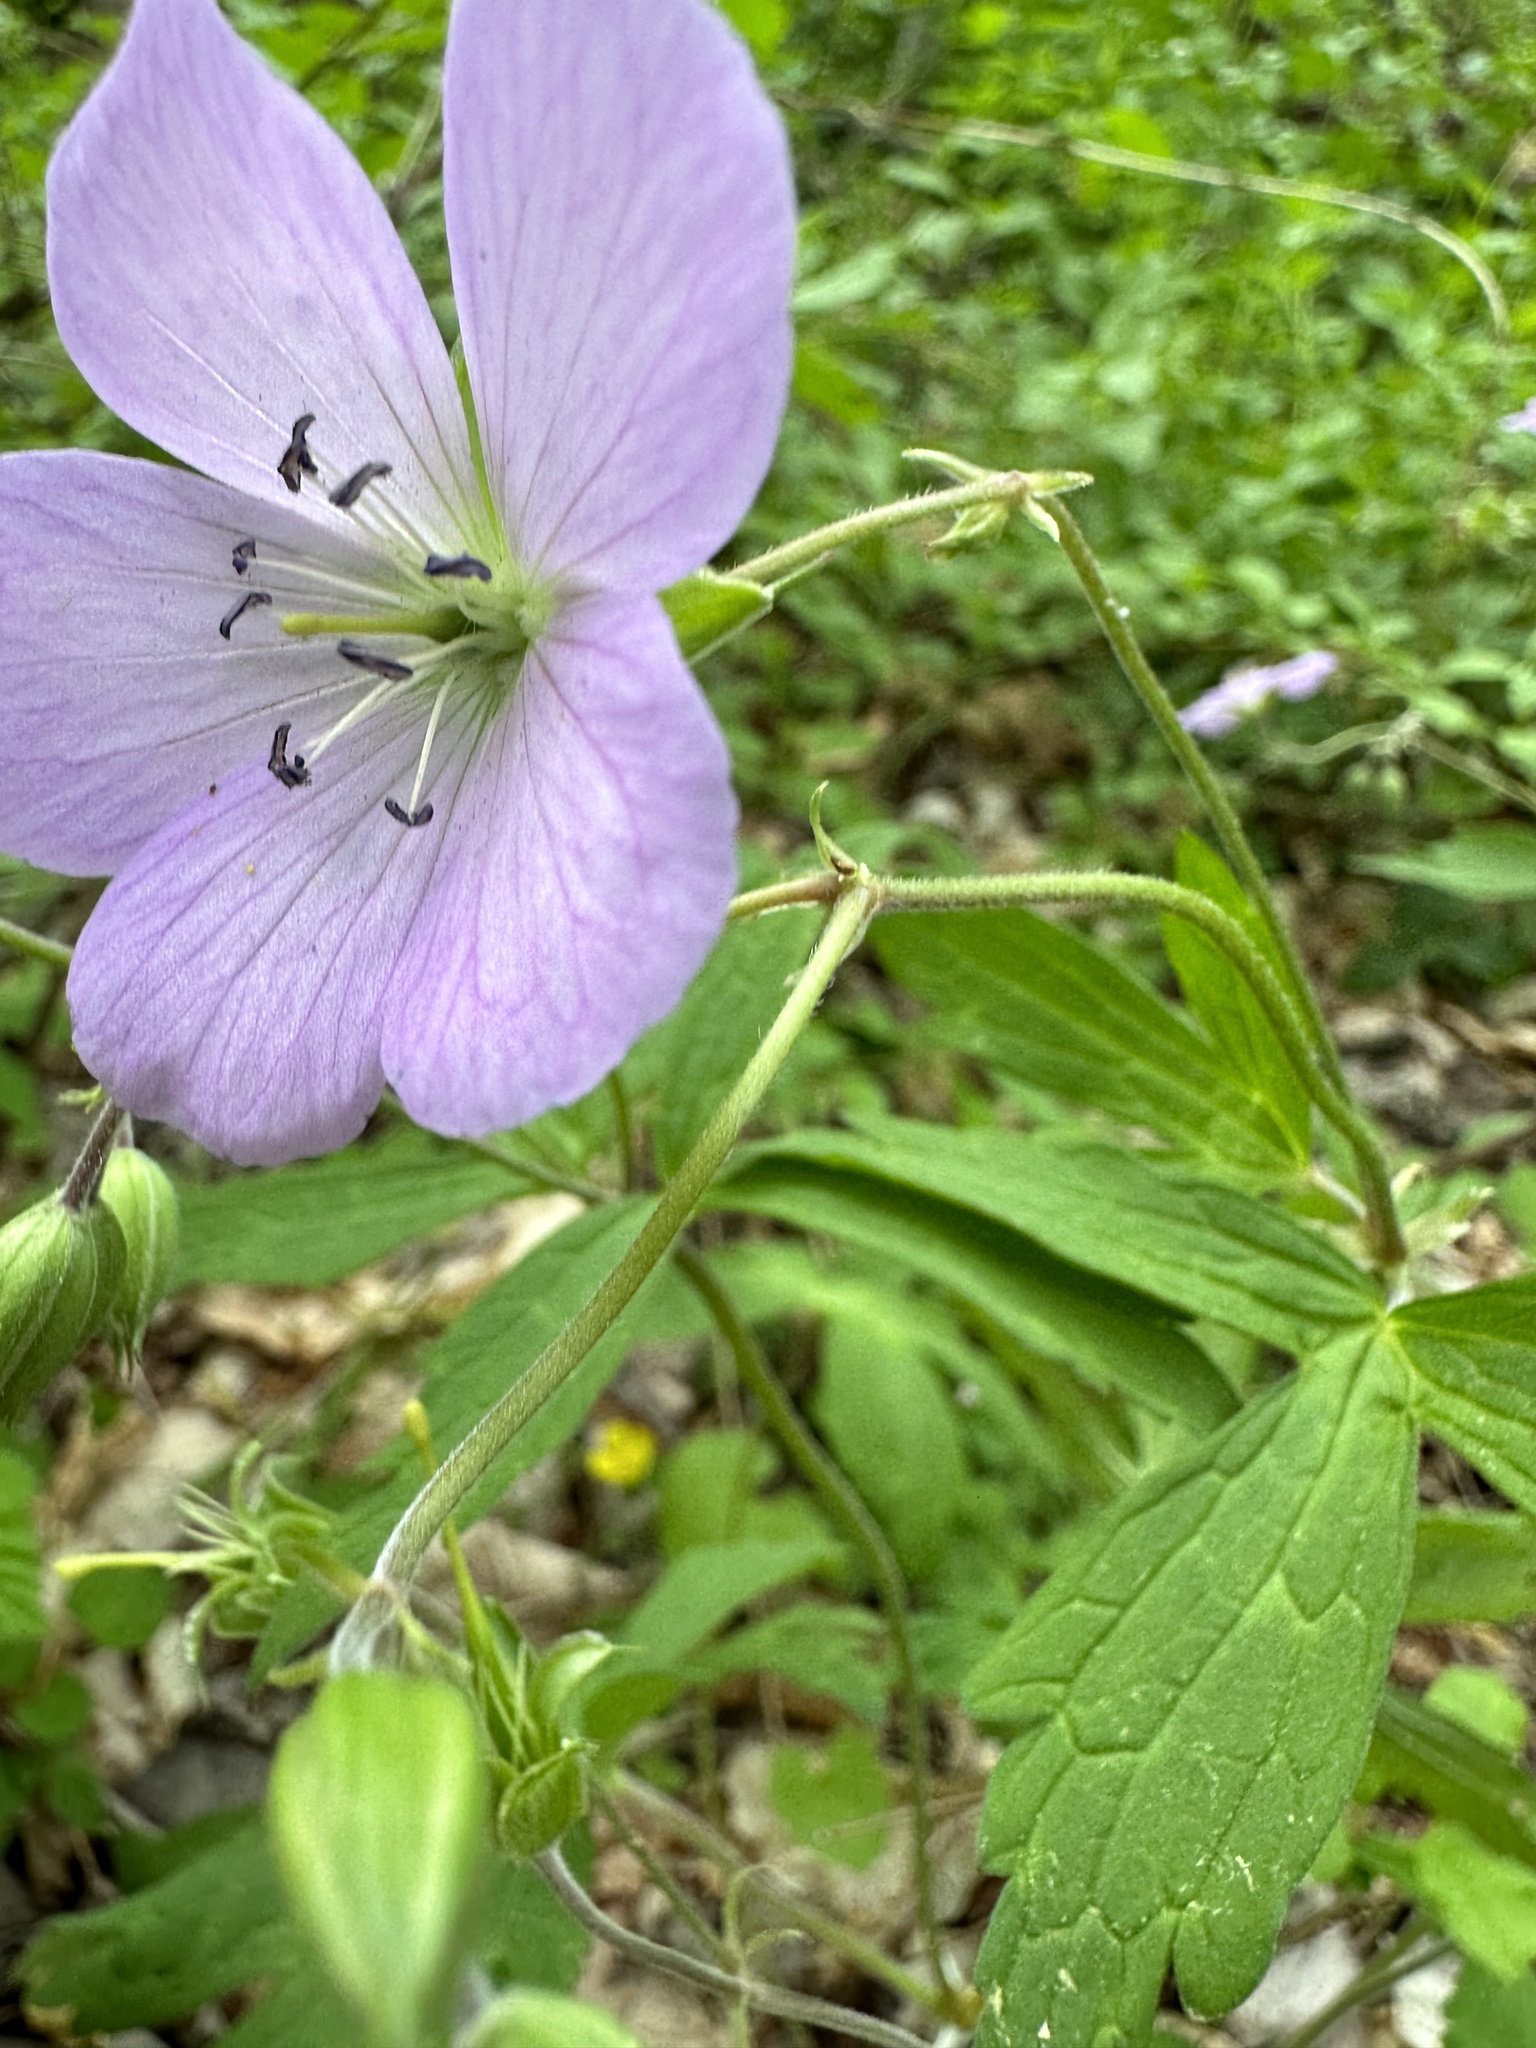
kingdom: Plantae
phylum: Tracheophyta
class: Magnoliopsida
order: Geraniales
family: Geraniaceae
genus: Geranium
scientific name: Geranium maculatum
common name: Spotted geranium
